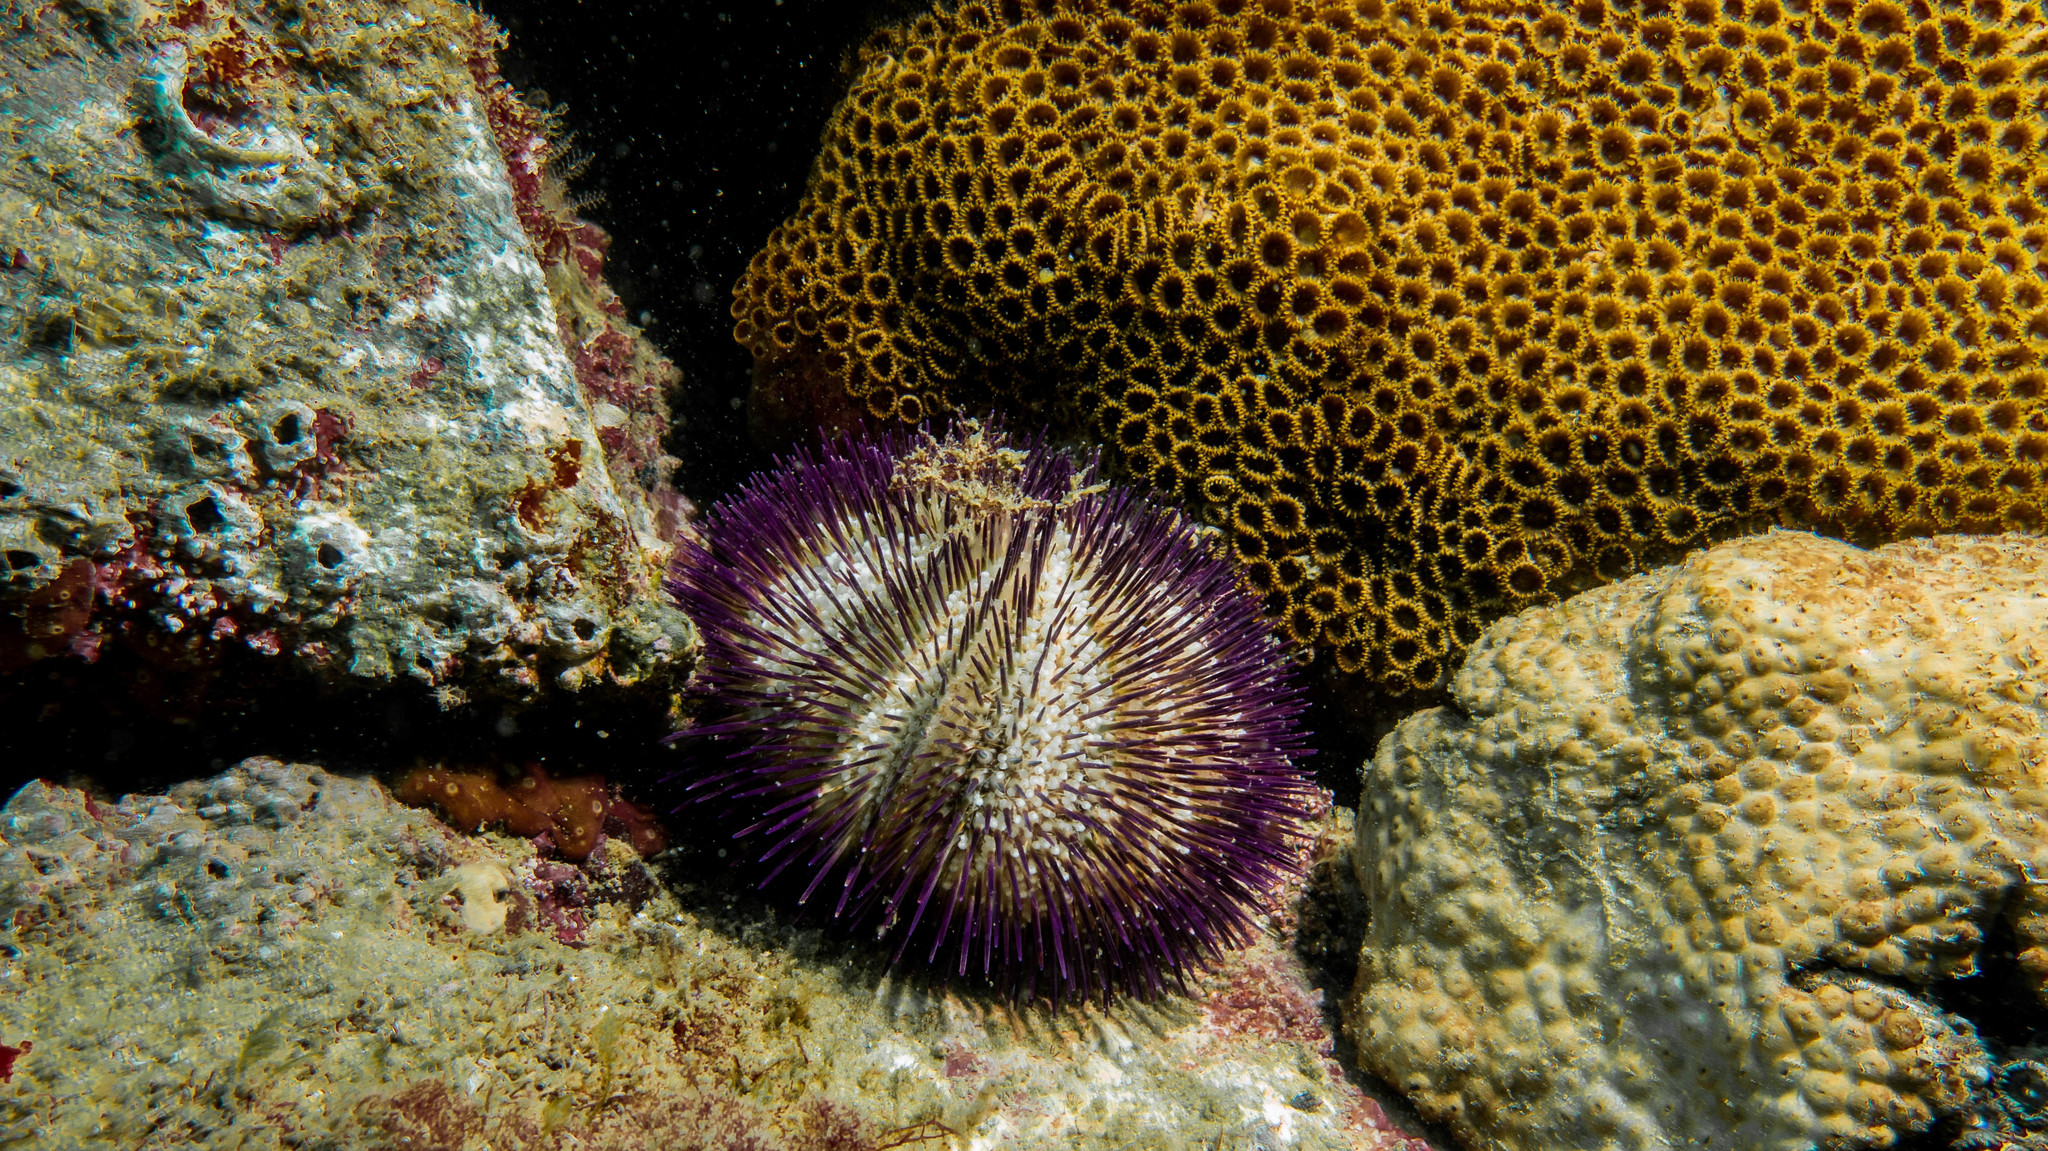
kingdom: Animalia
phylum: Echinodermata
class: Echinoidea
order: Camarodonta
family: Toxopneustidae
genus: Lytechinus
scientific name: Lytechinus variegatus
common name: Variegated urchin
